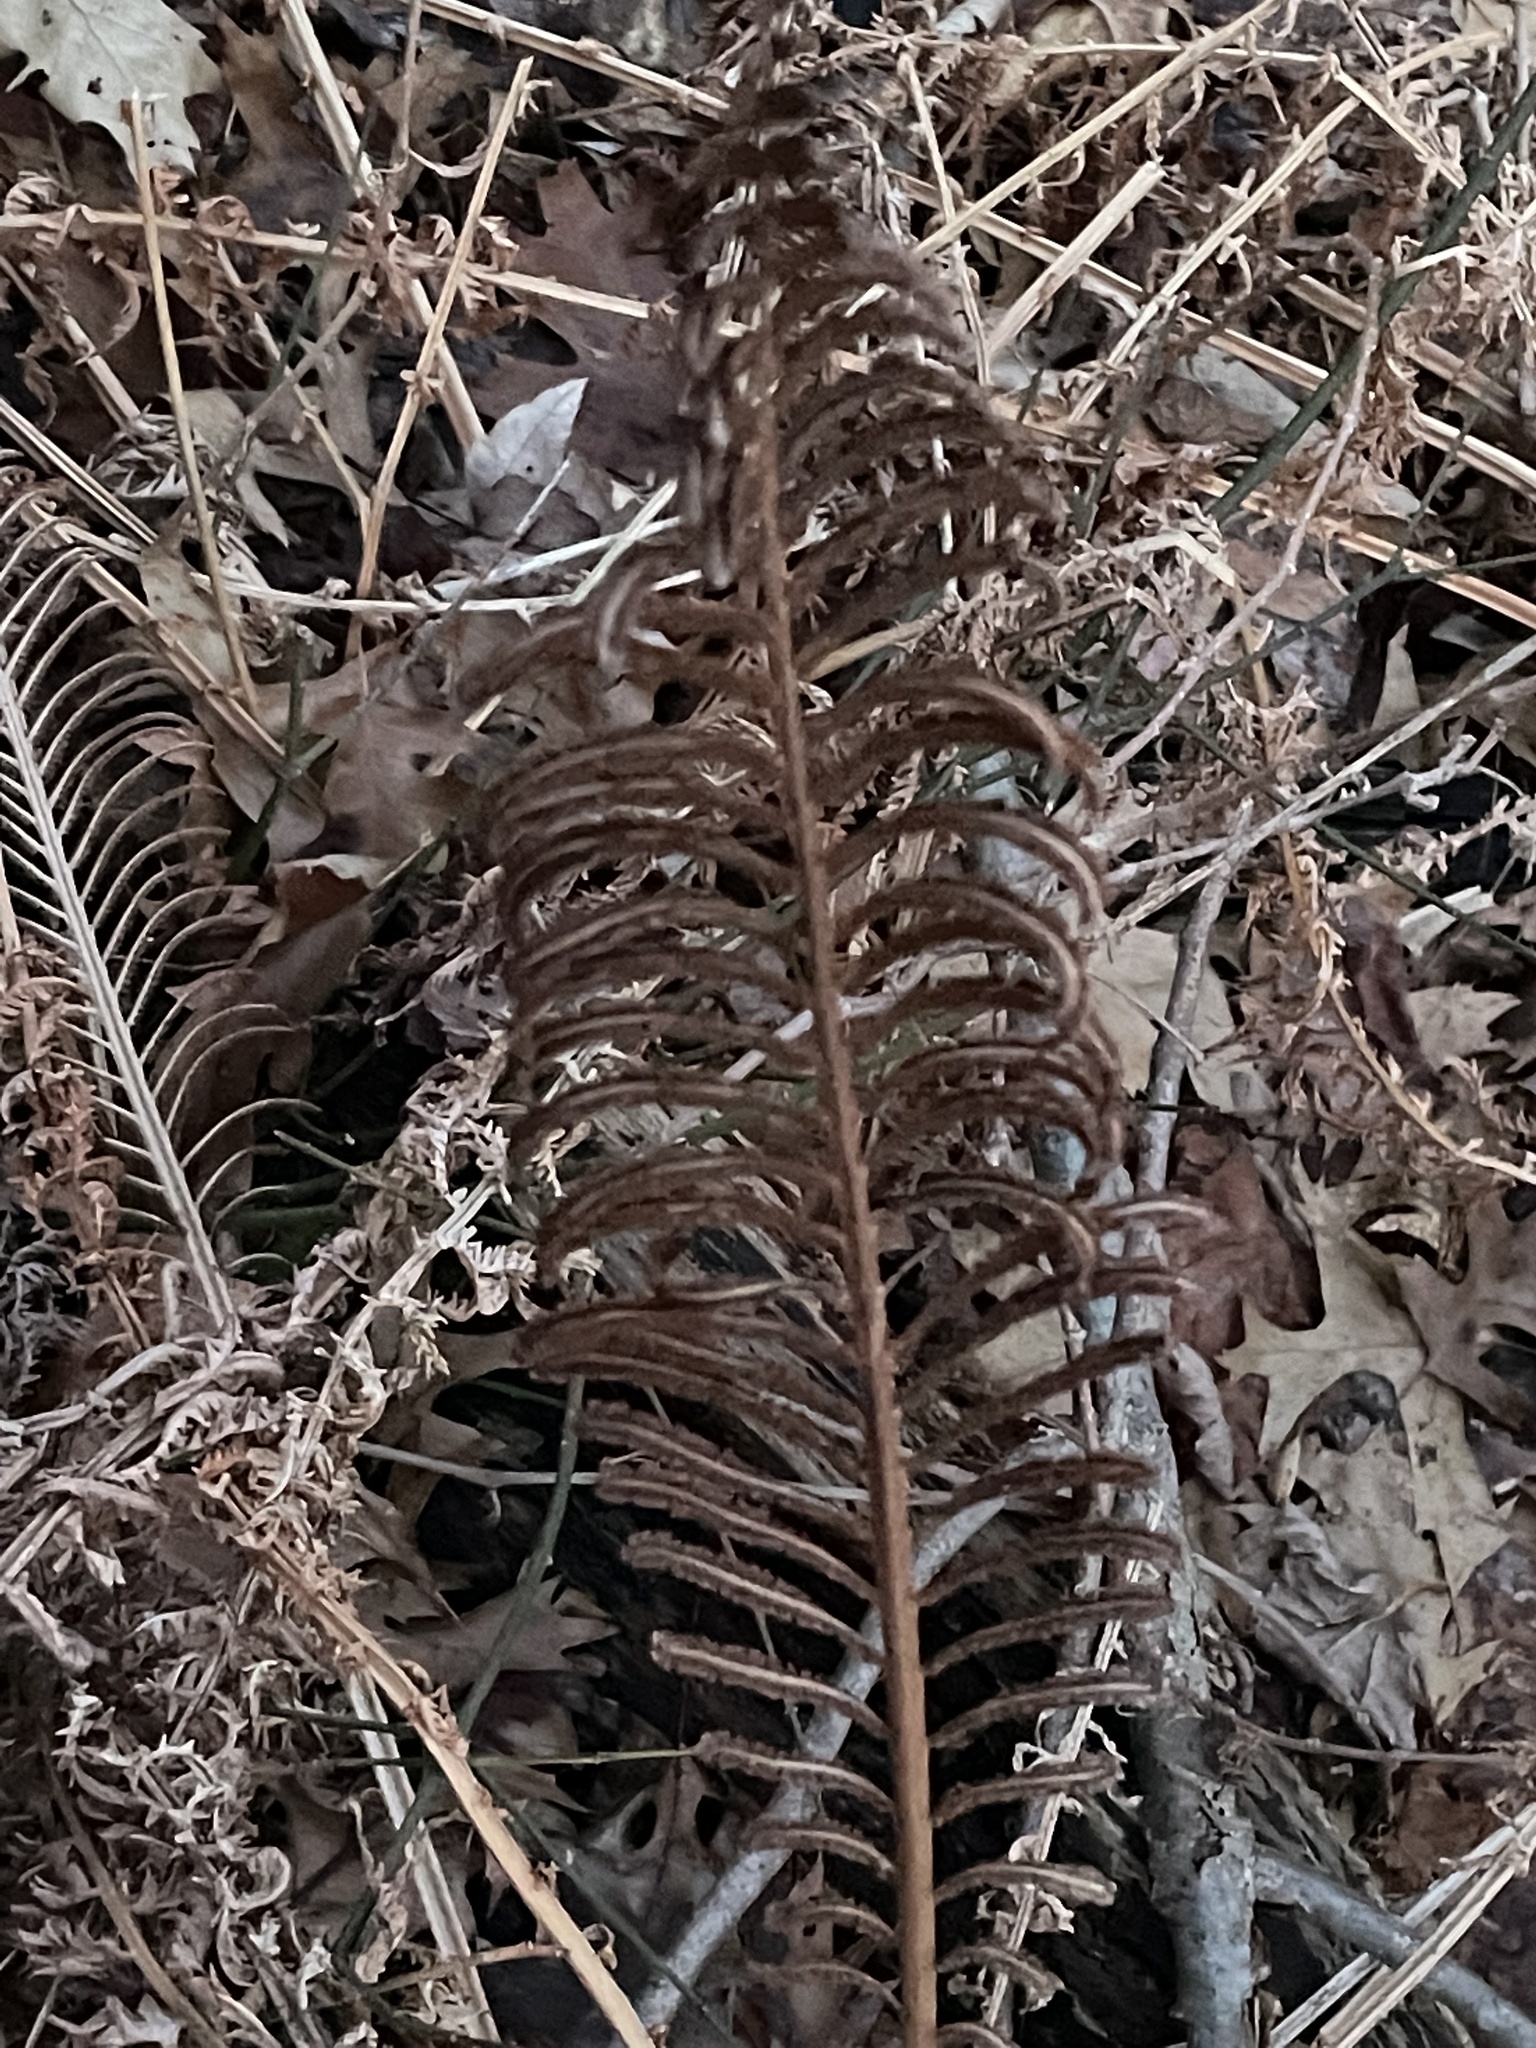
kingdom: Plantae
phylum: Tracheophyta
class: Polypodiopsida
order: Polypodiales
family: Onocleaceae
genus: Matteuccia
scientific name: Matteuccia struthiopteris
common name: Ostrich fern
